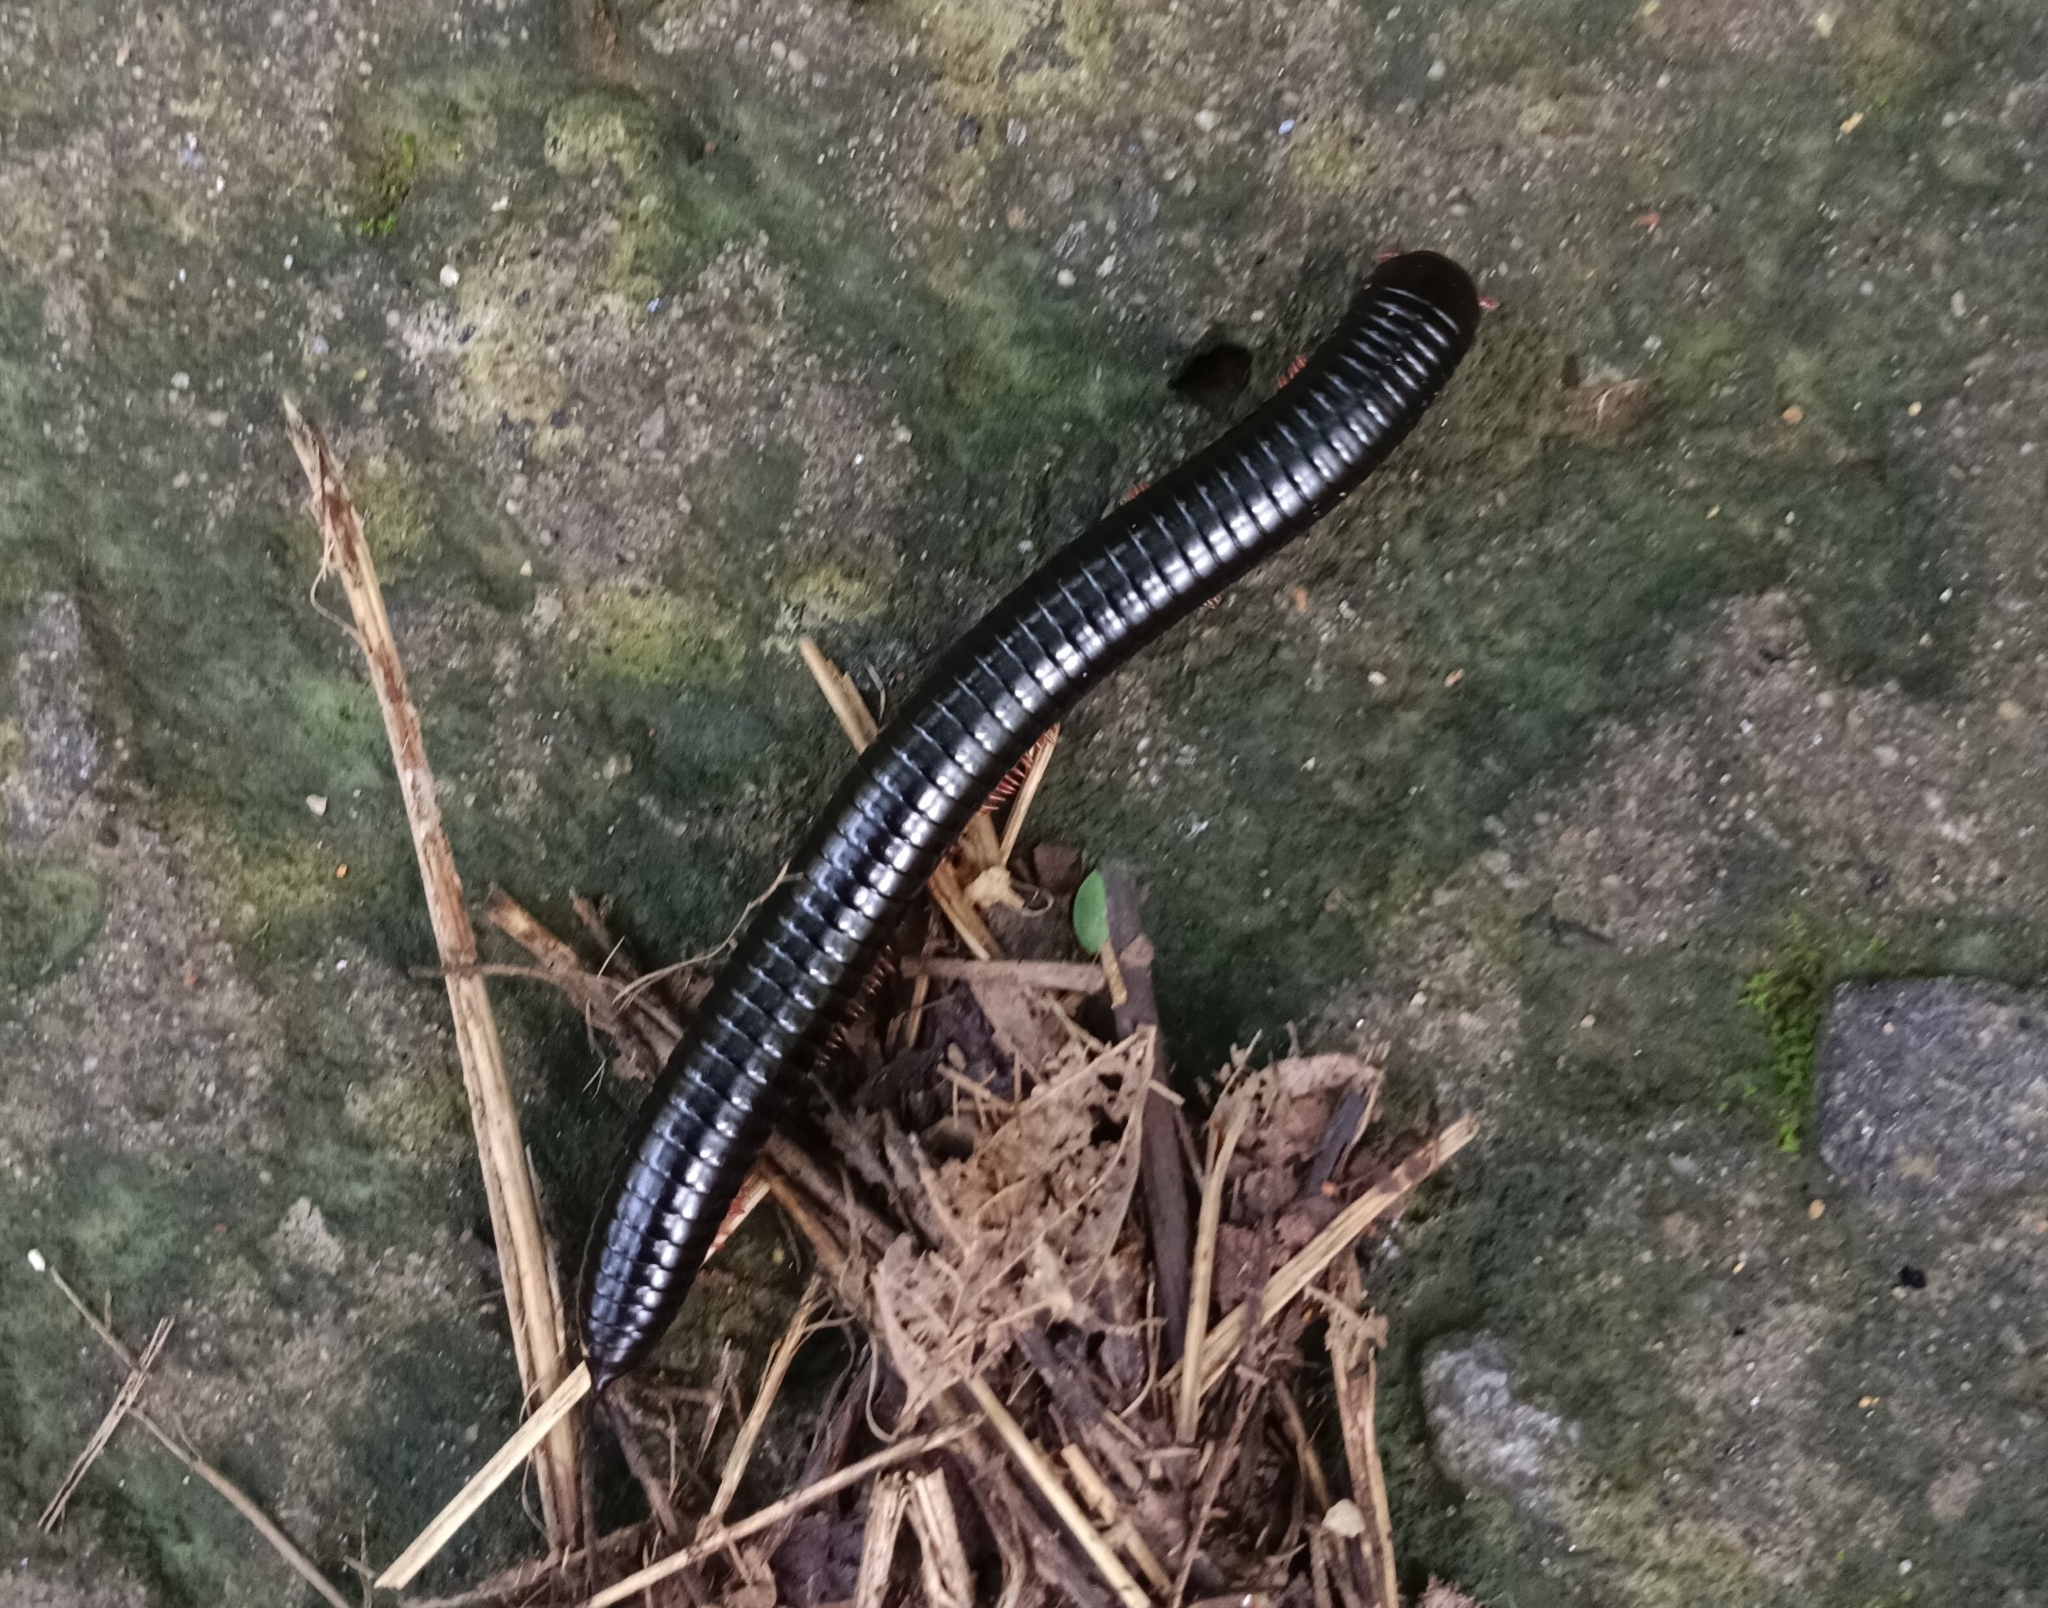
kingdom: Animalia
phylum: Arthropoda
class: Diplopoda
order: Spirostreptida
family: Harpagophoridae
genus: Phyllogonostreptus
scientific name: Phyllogonostreptus nigrolabiatus
